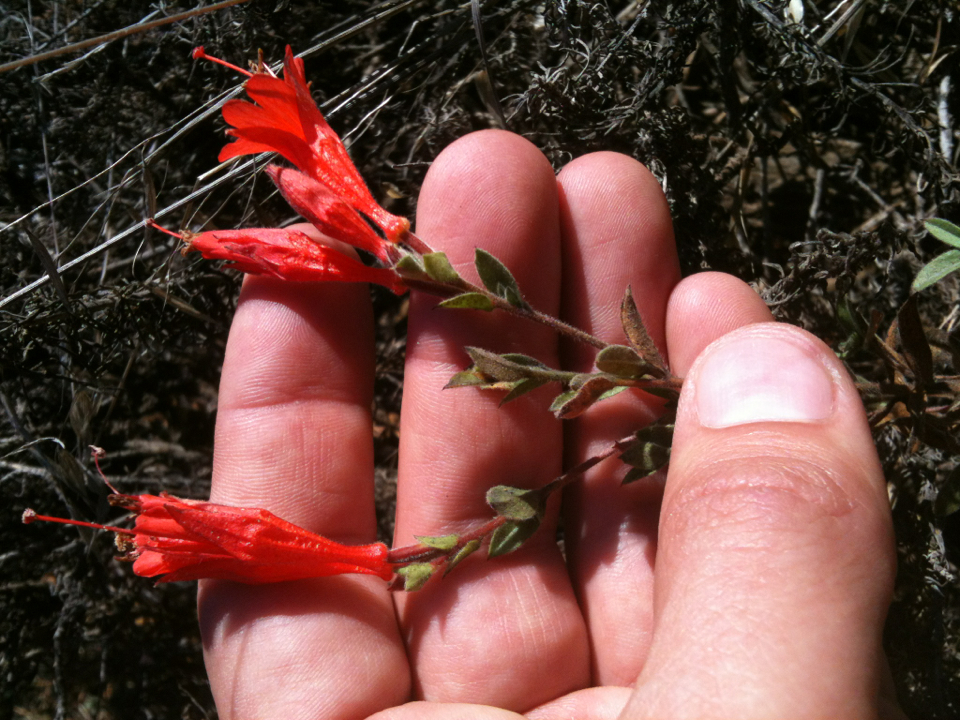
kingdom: Plantae
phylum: Tracheophyta
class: Magnoliopsida
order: Myrtales
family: Onagraceae
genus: Epilobium
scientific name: Epilobium canum
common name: California-fuchsia
